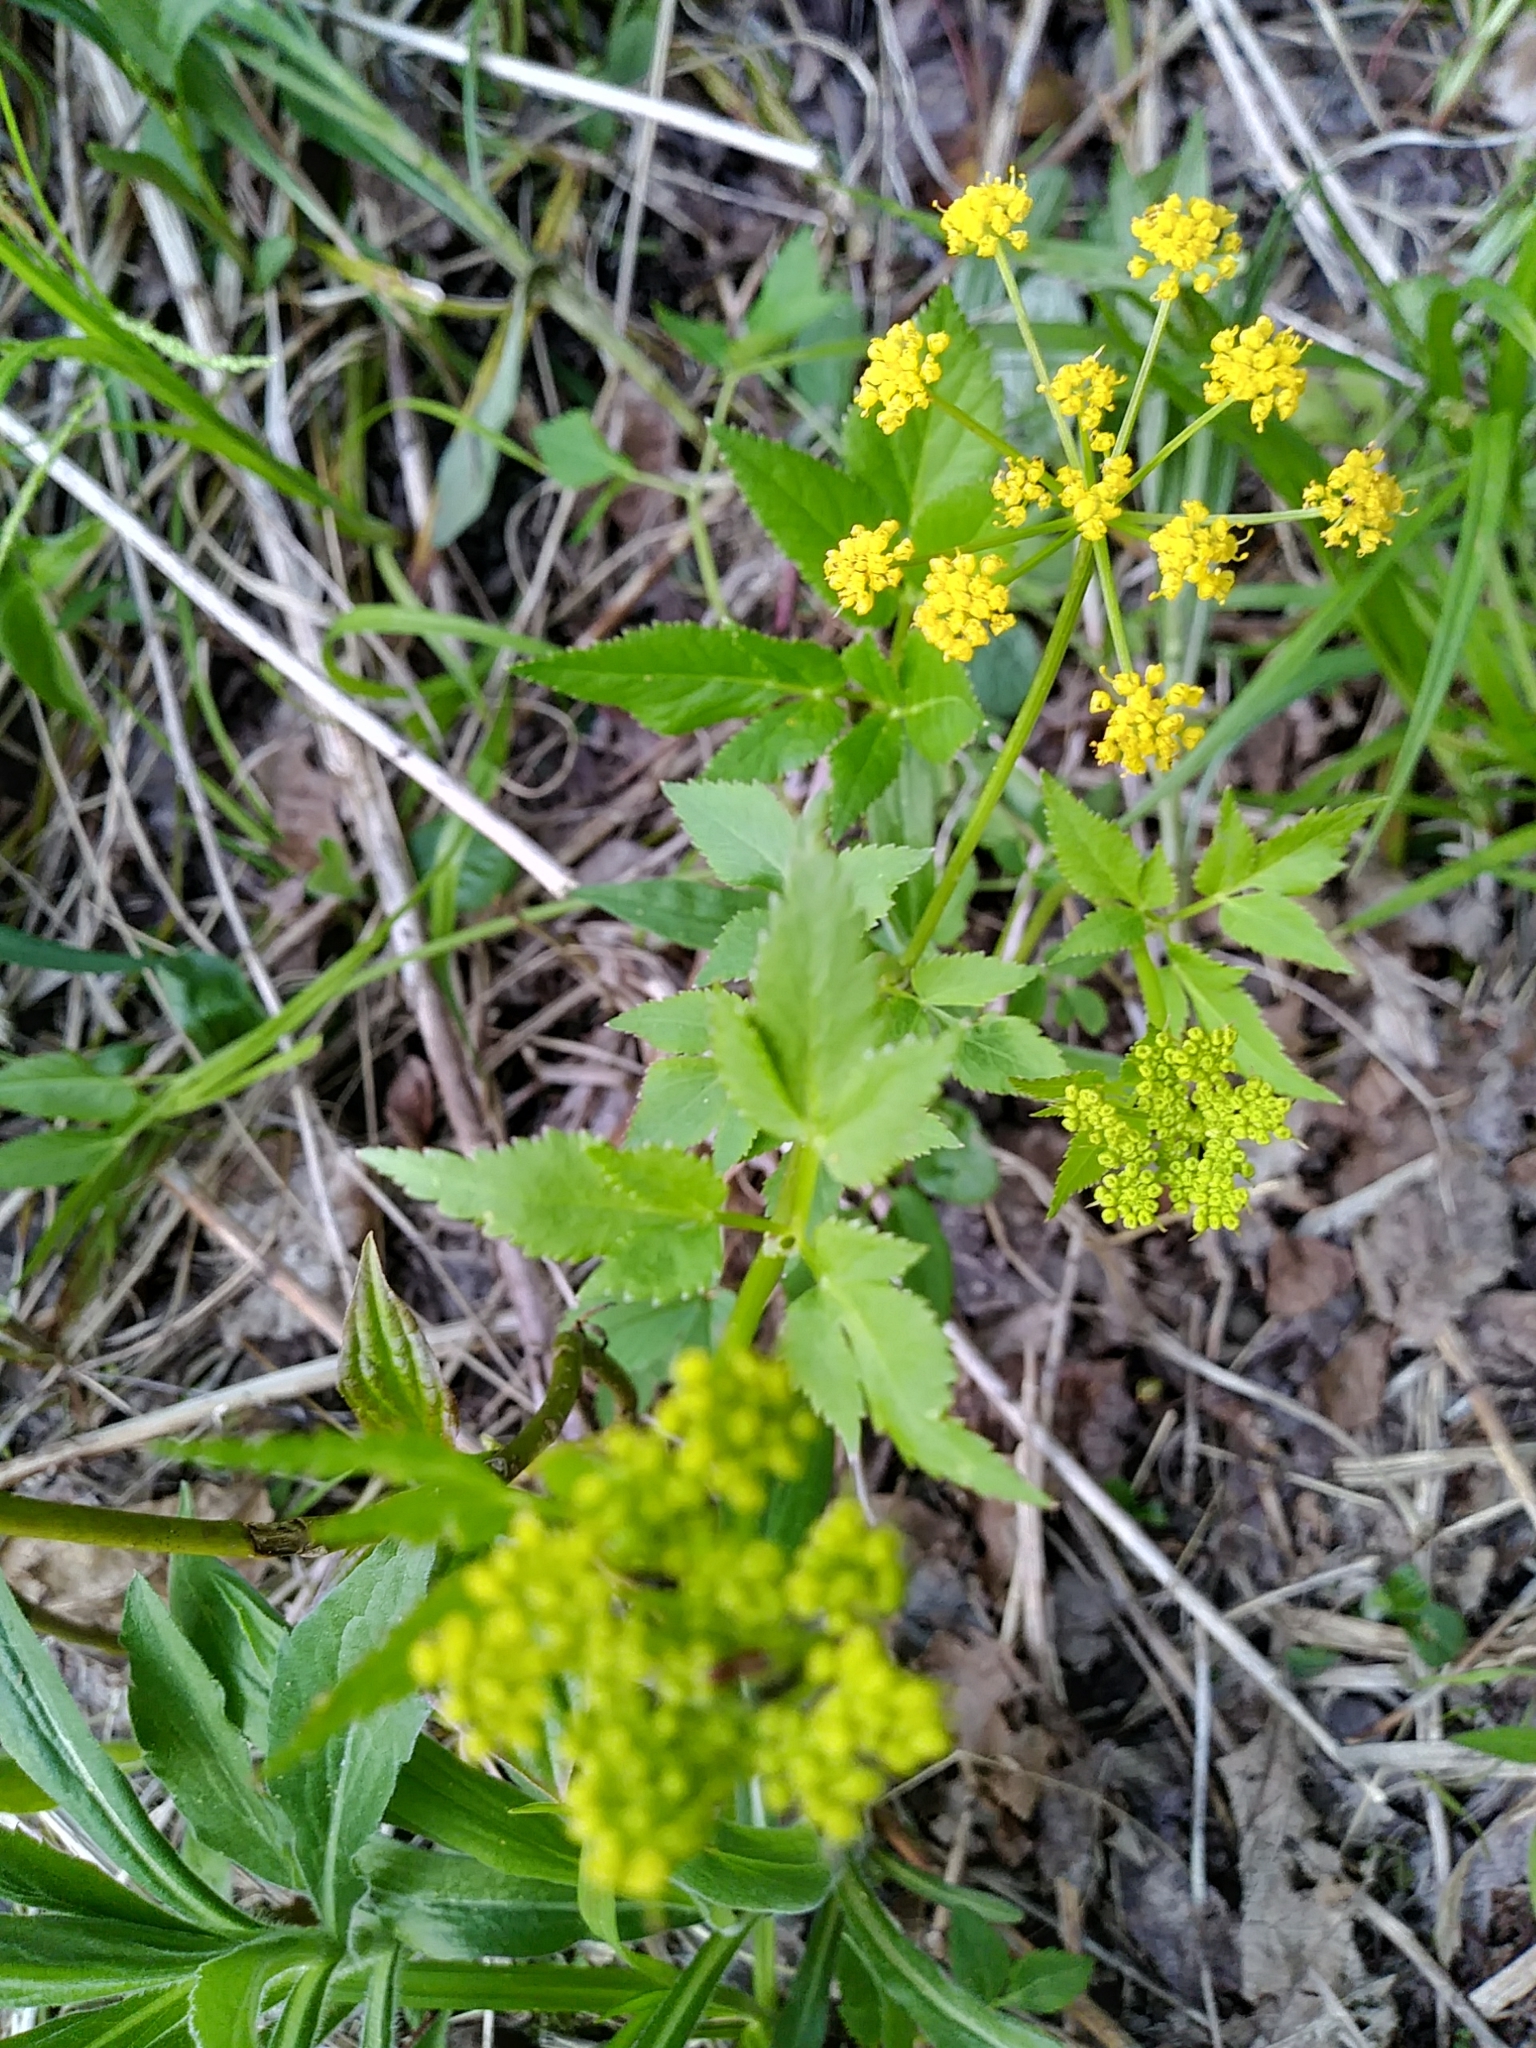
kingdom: Plantae
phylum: Tracheophyta
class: Magnoliopsida
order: Apiales
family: Apiaceae
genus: Zizia
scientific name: Zizia aurea
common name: Golden alexanders
